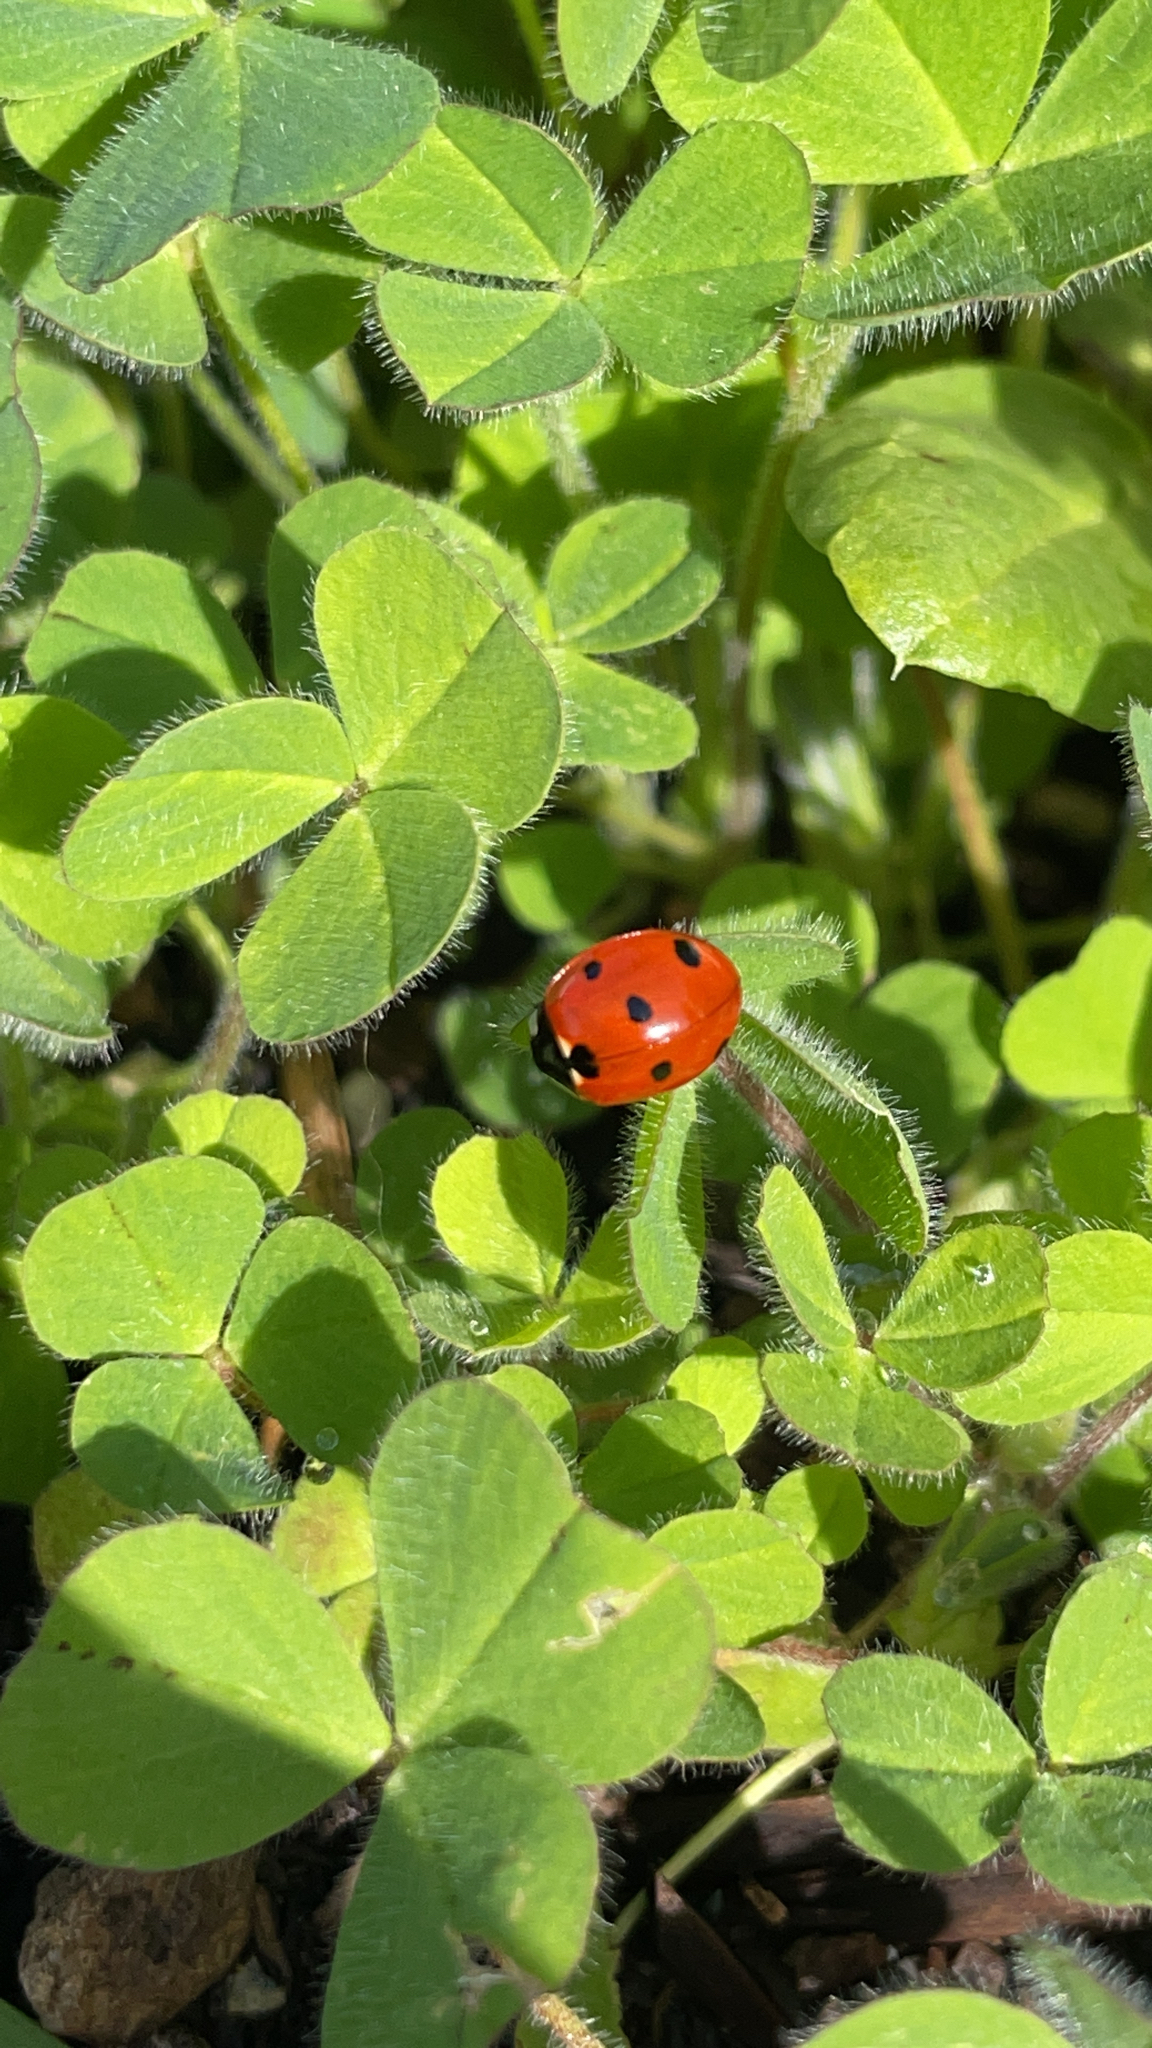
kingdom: Animalia
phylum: Arthropoda
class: Insecta
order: Coleoptera
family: Coccinellidae
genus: Coccinella
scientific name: Coccinella septempunctata
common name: Sevenspotted lady beetle
